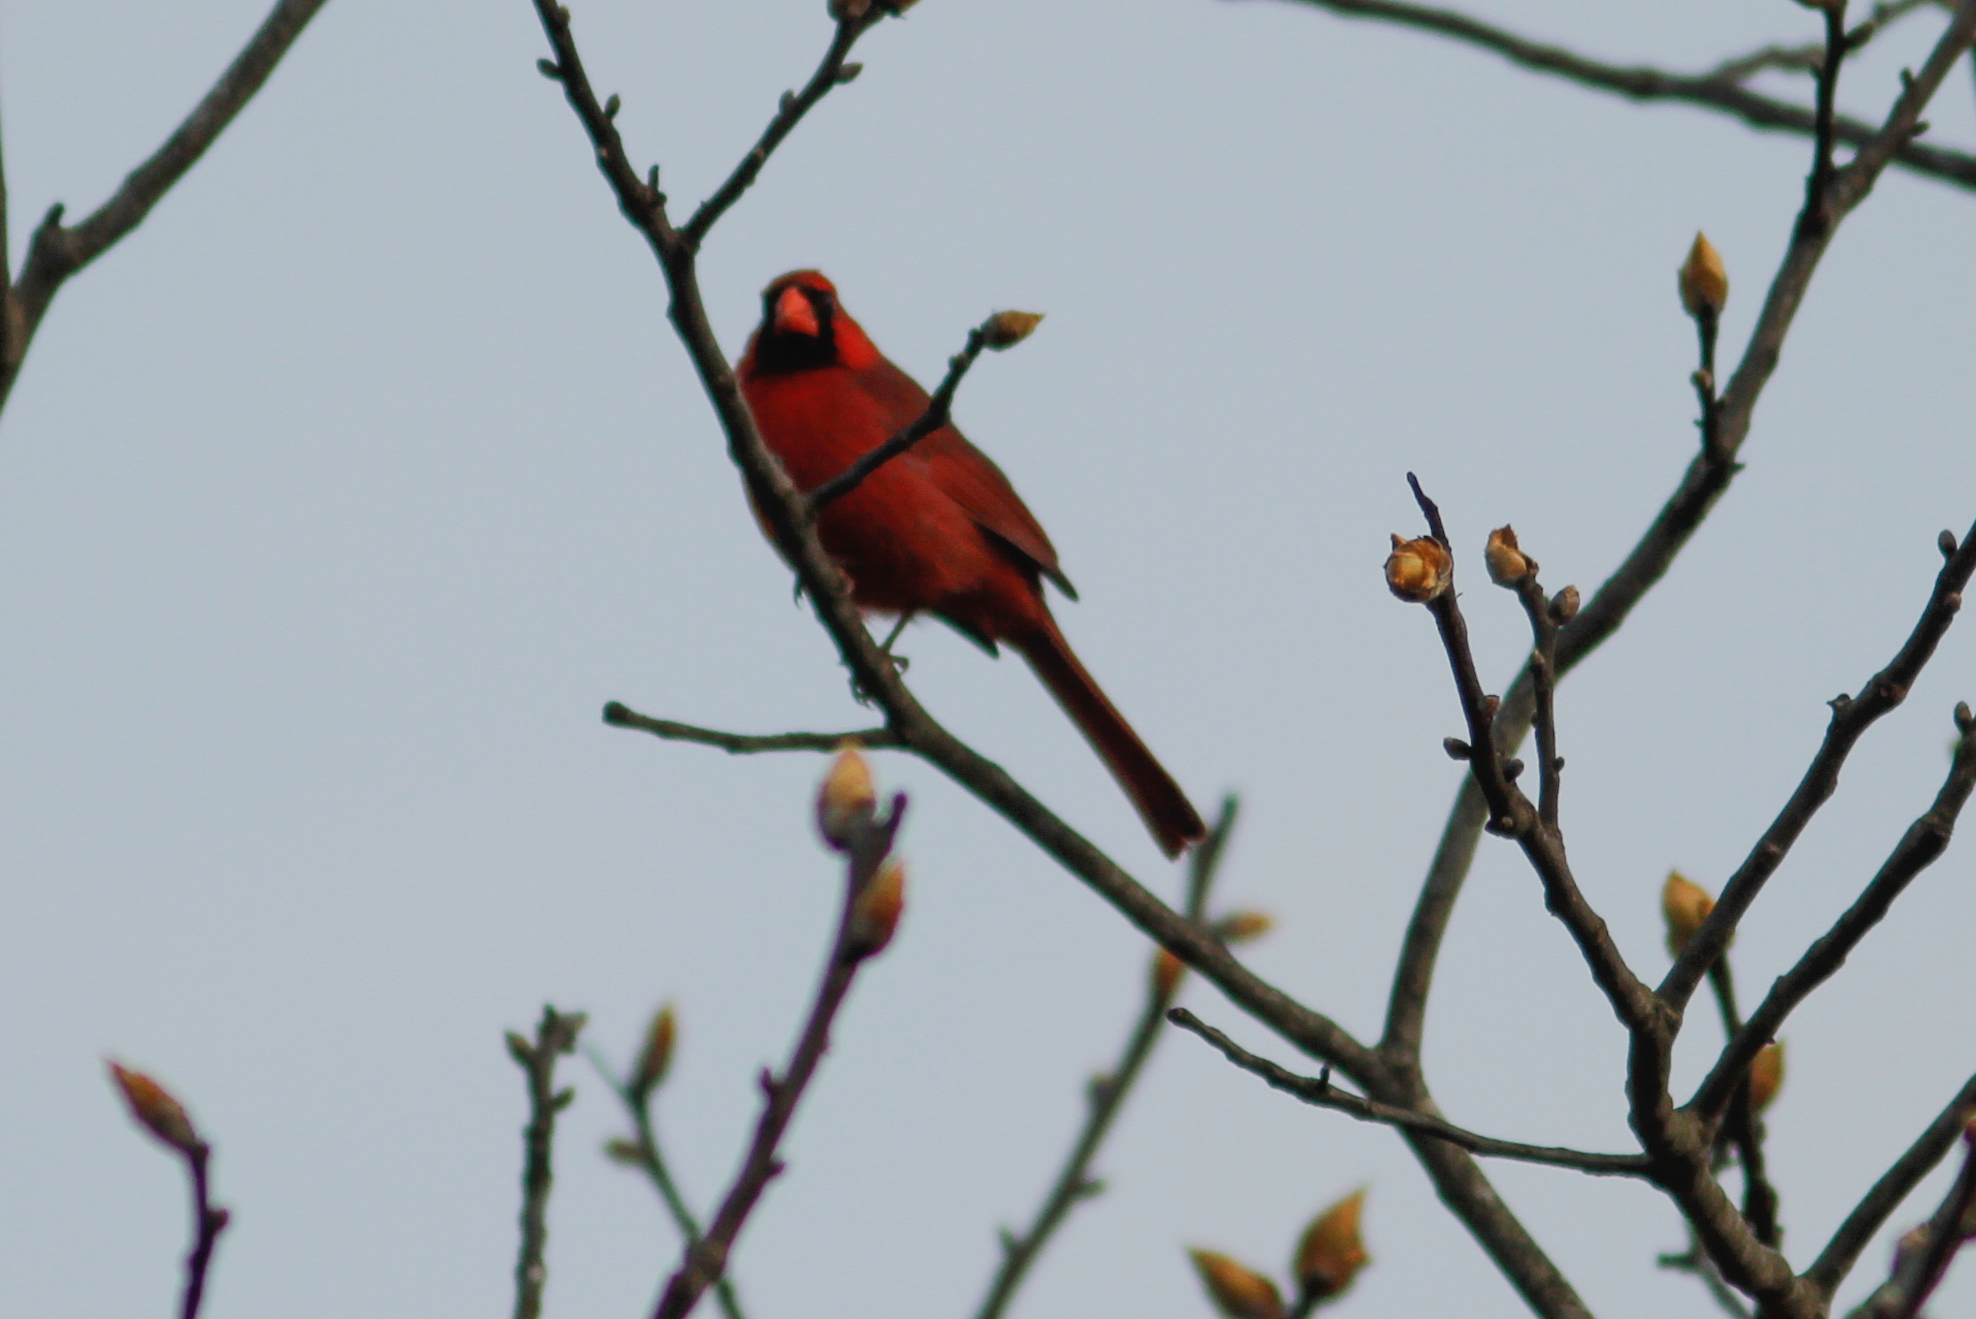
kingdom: Animalia
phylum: Chordata
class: Aves
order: Passeriformes
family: Cardinalidae
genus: Cardinalis
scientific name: Cardinalis cardinalis
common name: Northern cardinal
